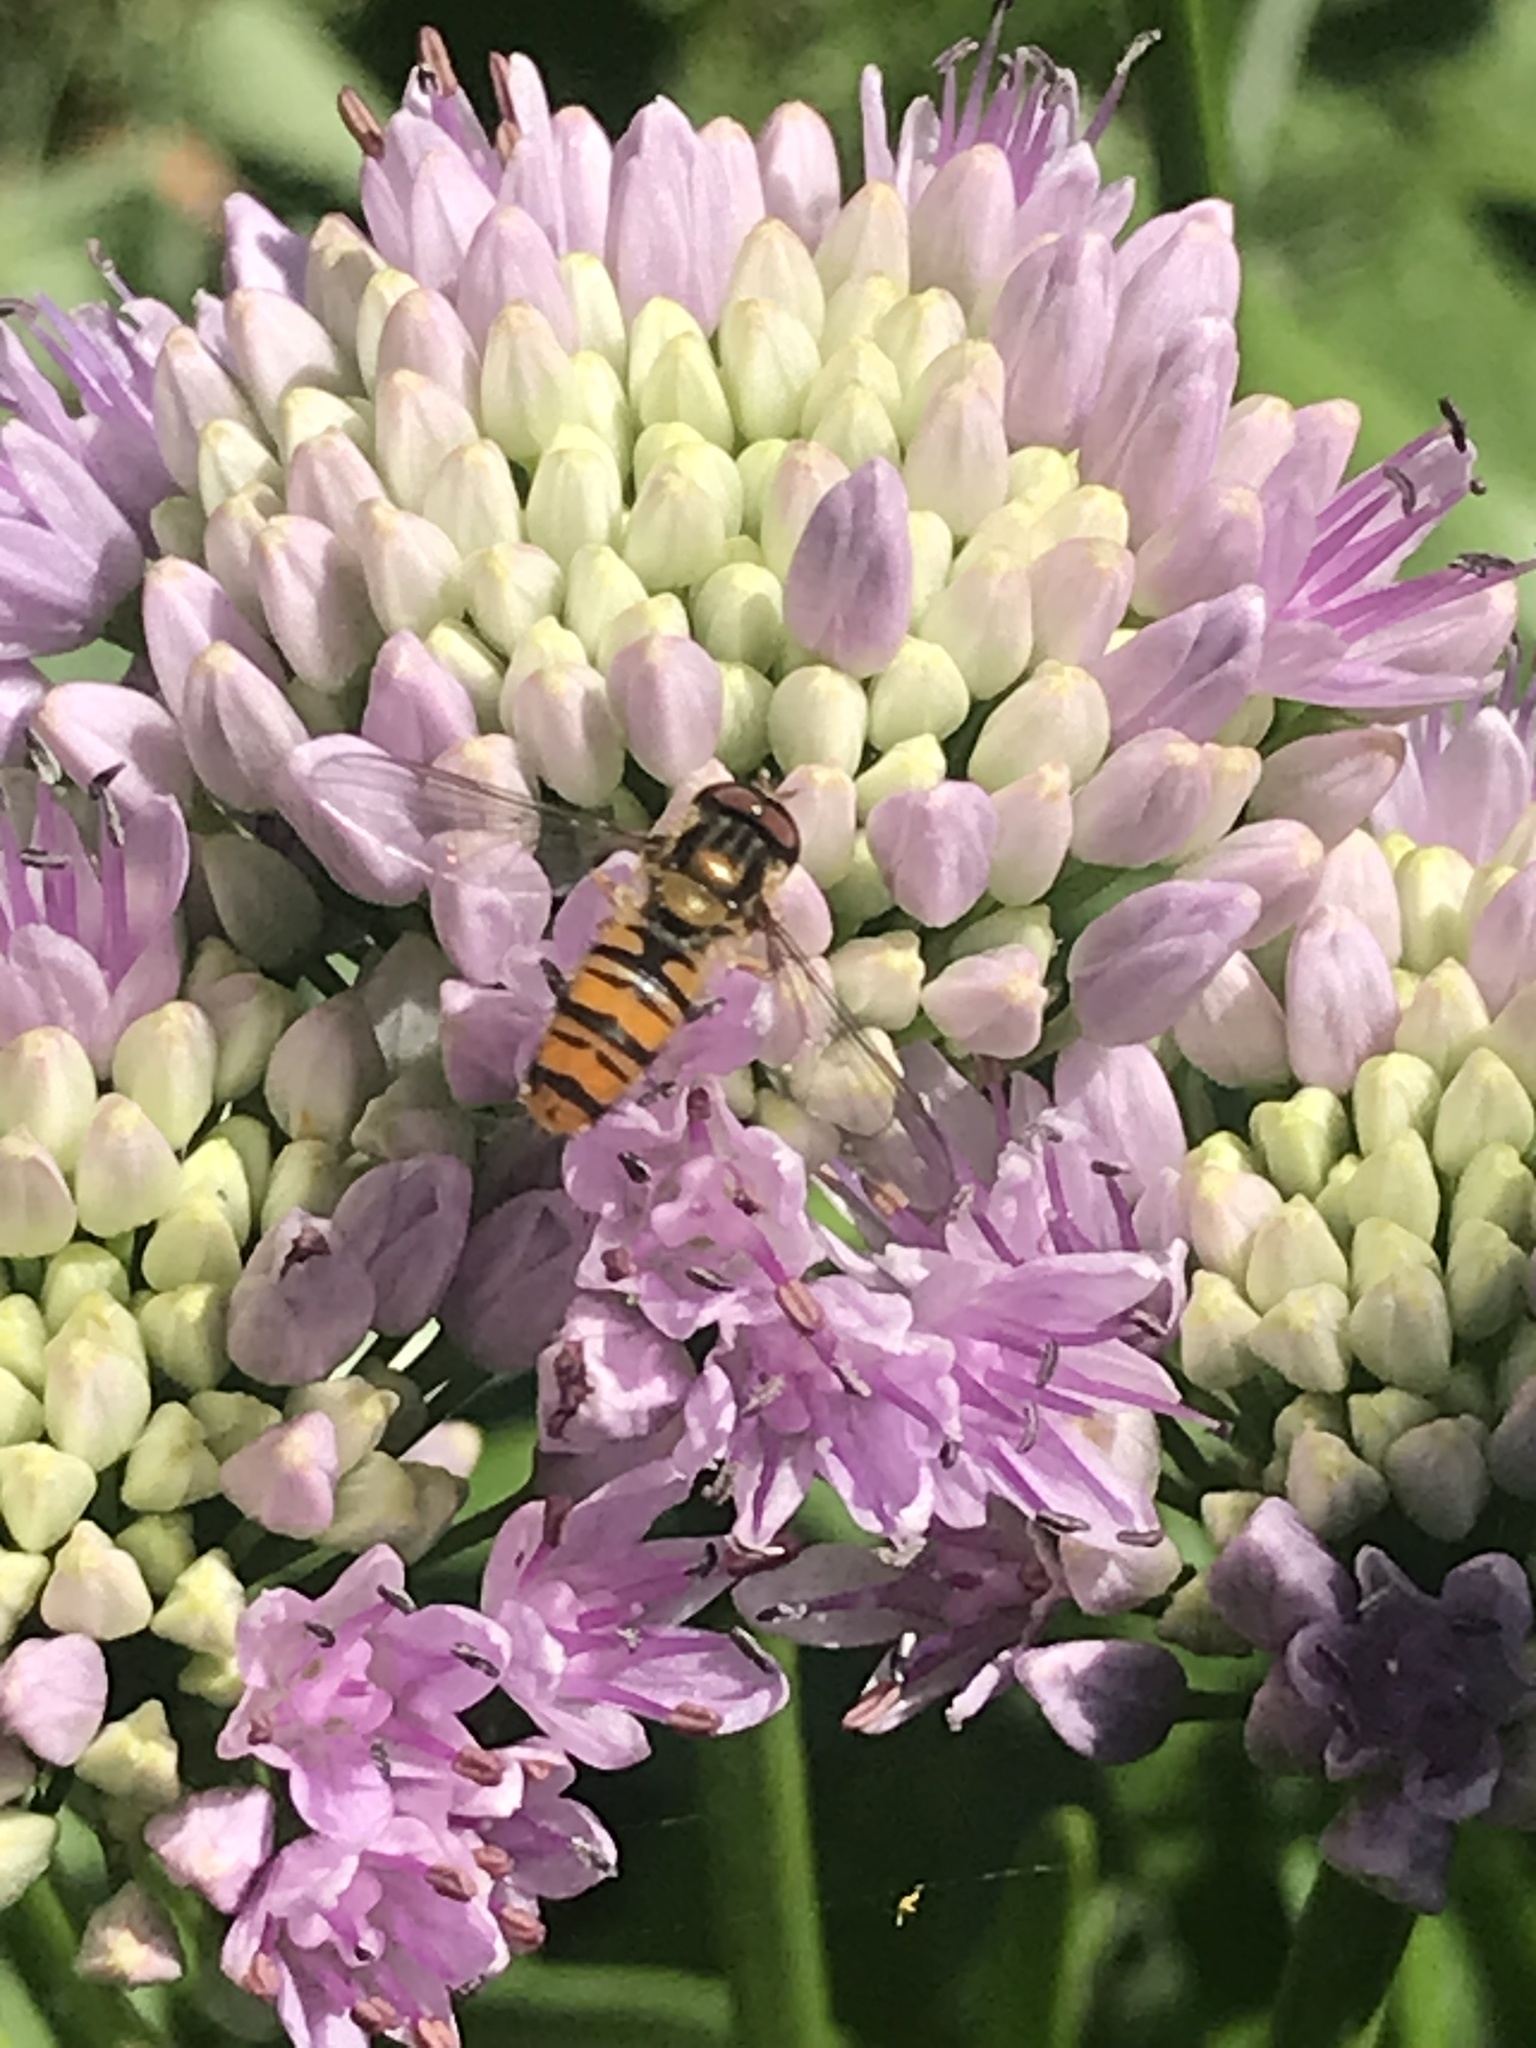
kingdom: Animalia
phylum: Arthropoda
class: Insecta
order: Diptera
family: Syrphidae
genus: Episyrphus
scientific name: Episyrphus balteatus
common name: Marmalade hoverfly
